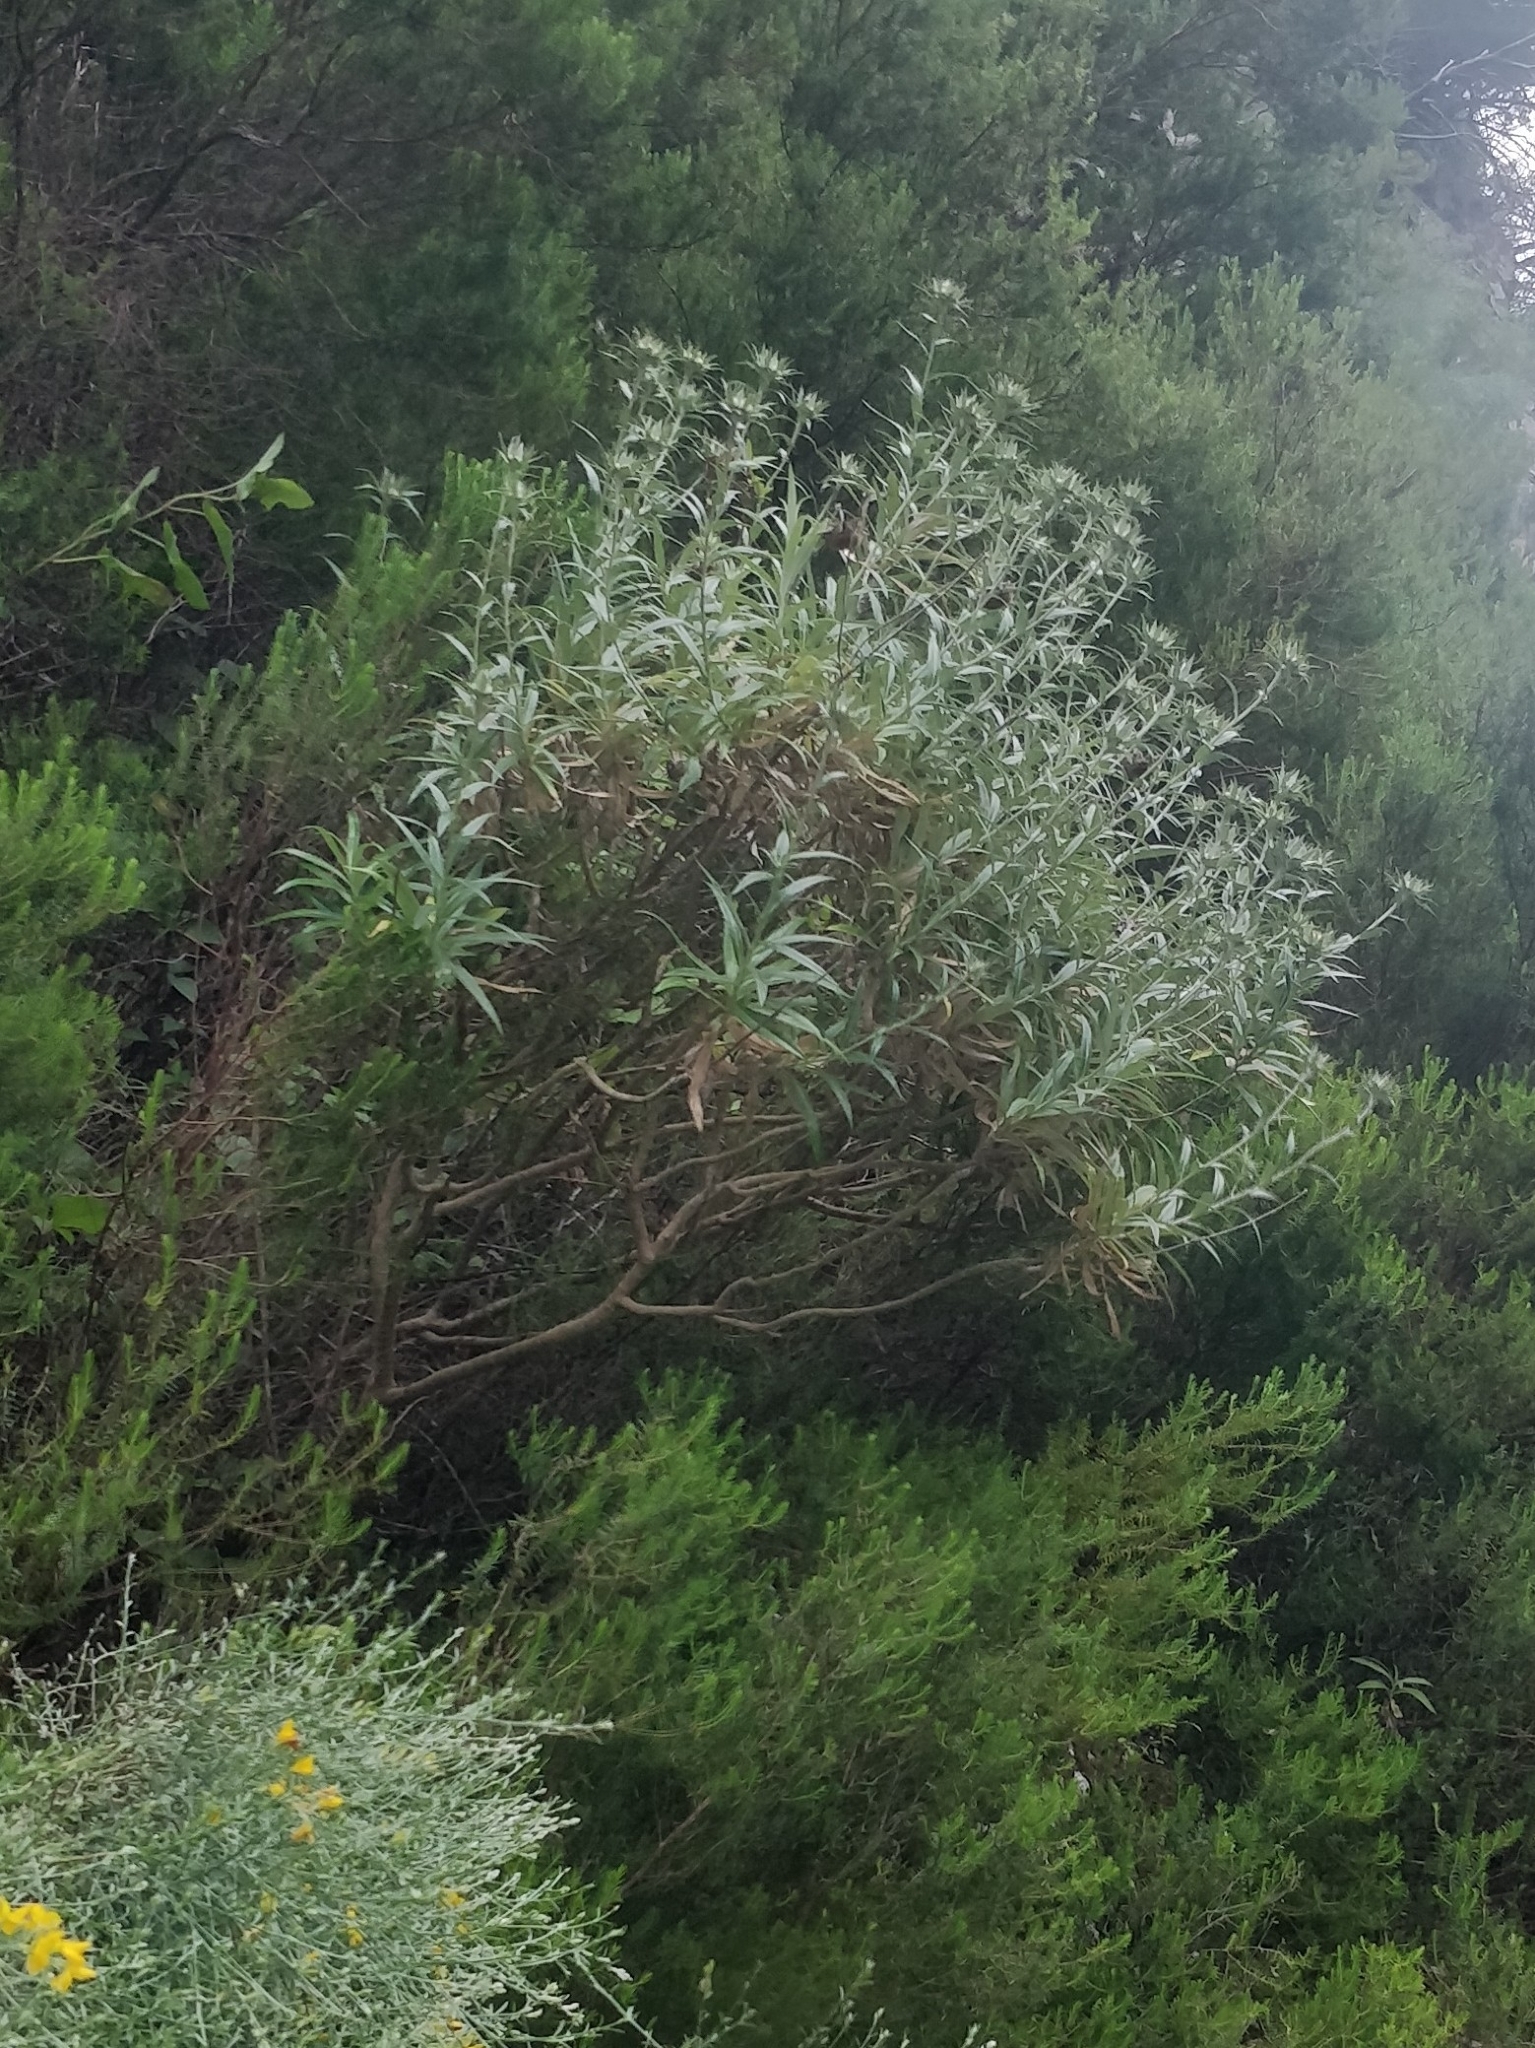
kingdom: Plantae
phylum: Tracheophyta
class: Magnoliopsida
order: Asterales
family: Asteraceae
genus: Carlina
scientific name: Carlina salicifolia
